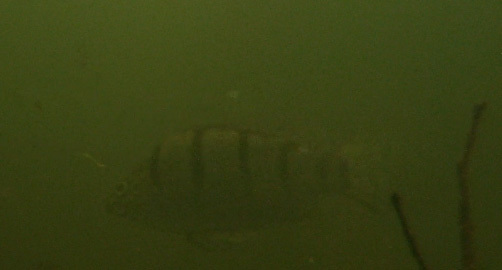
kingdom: Animalia
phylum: Chordata
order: Perciformes
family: Terapontidae
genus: Amniataba
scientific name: Amniataba percoides
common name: Banded grunter
